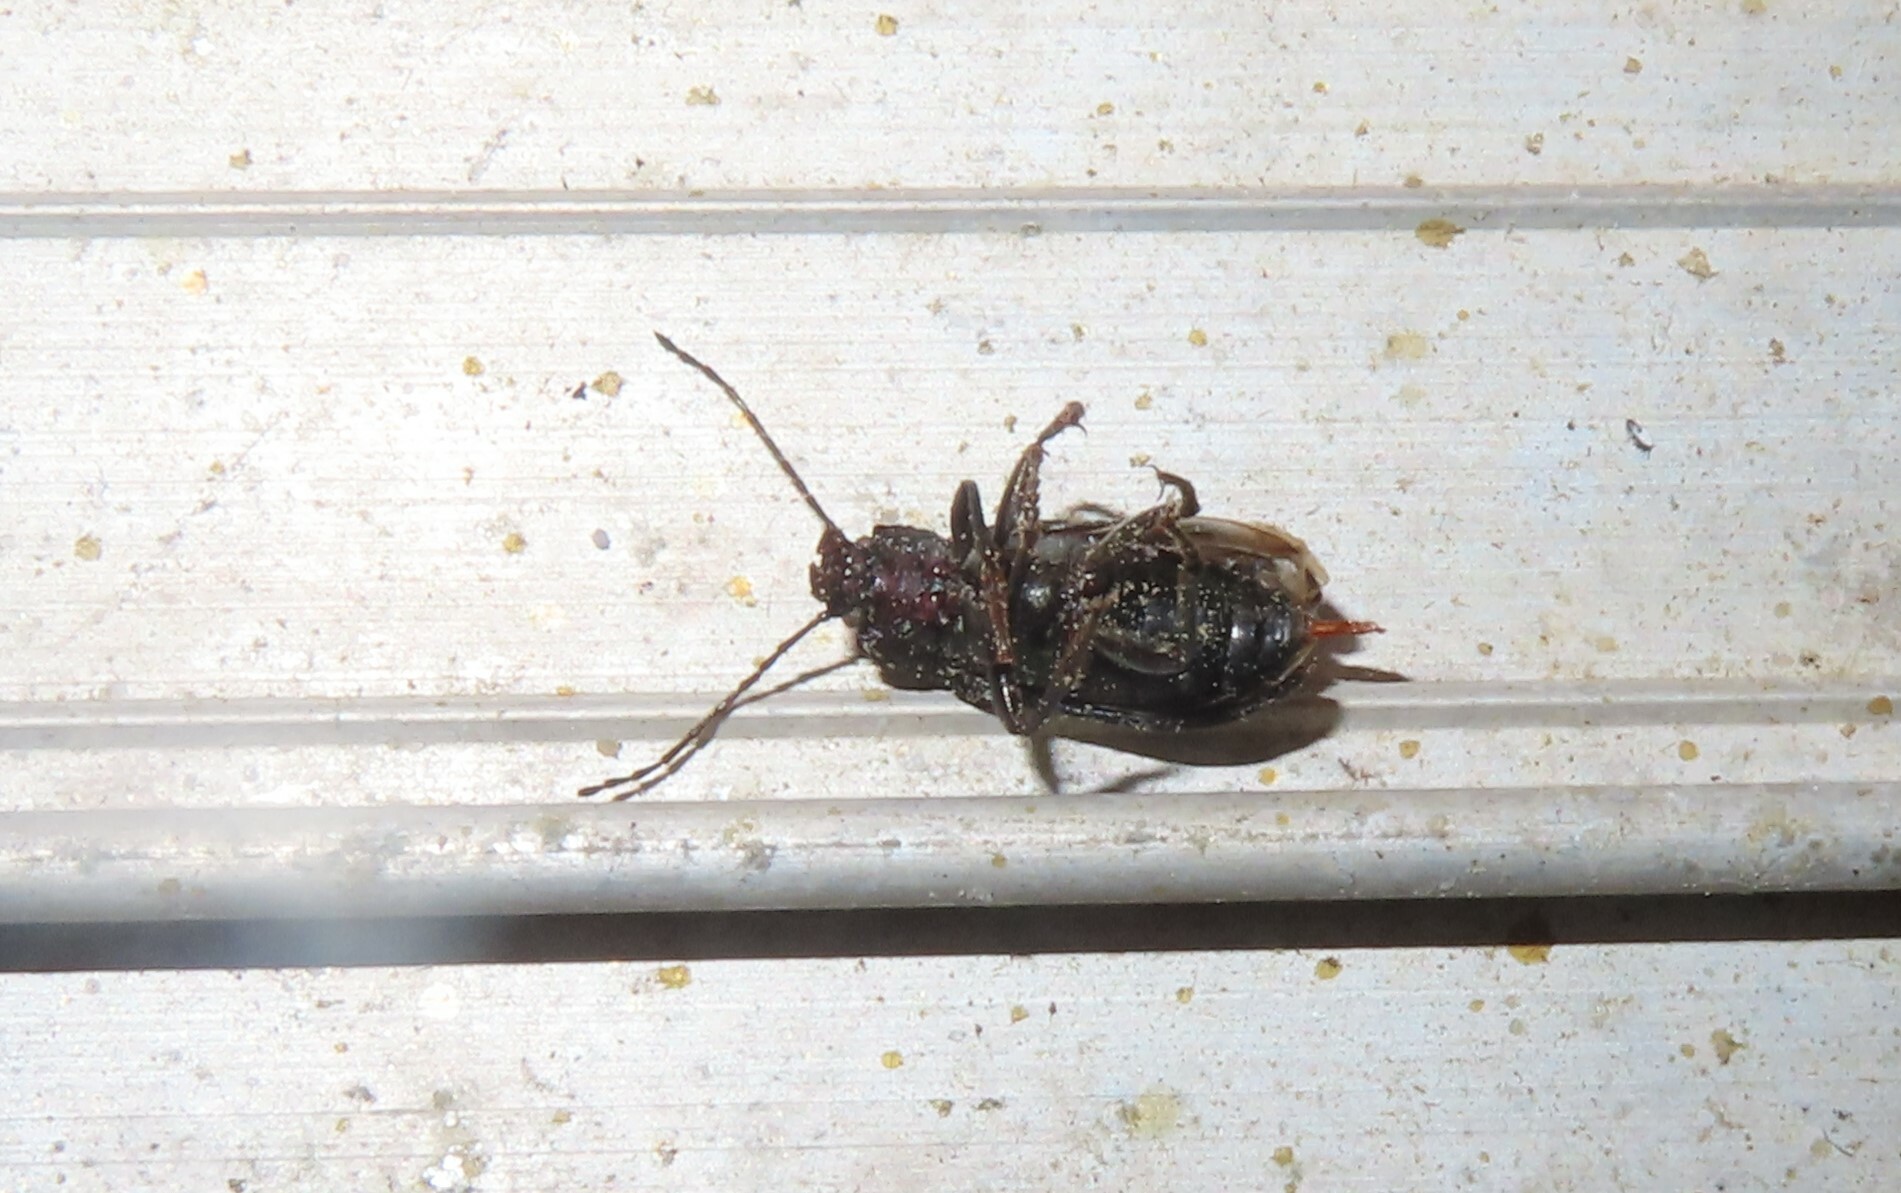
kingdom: Animalia
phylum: Arthropoda
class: Insecta
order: Coleoptera
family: Tenebrionidae
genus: Tarpela
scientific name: Tarpela undulata
